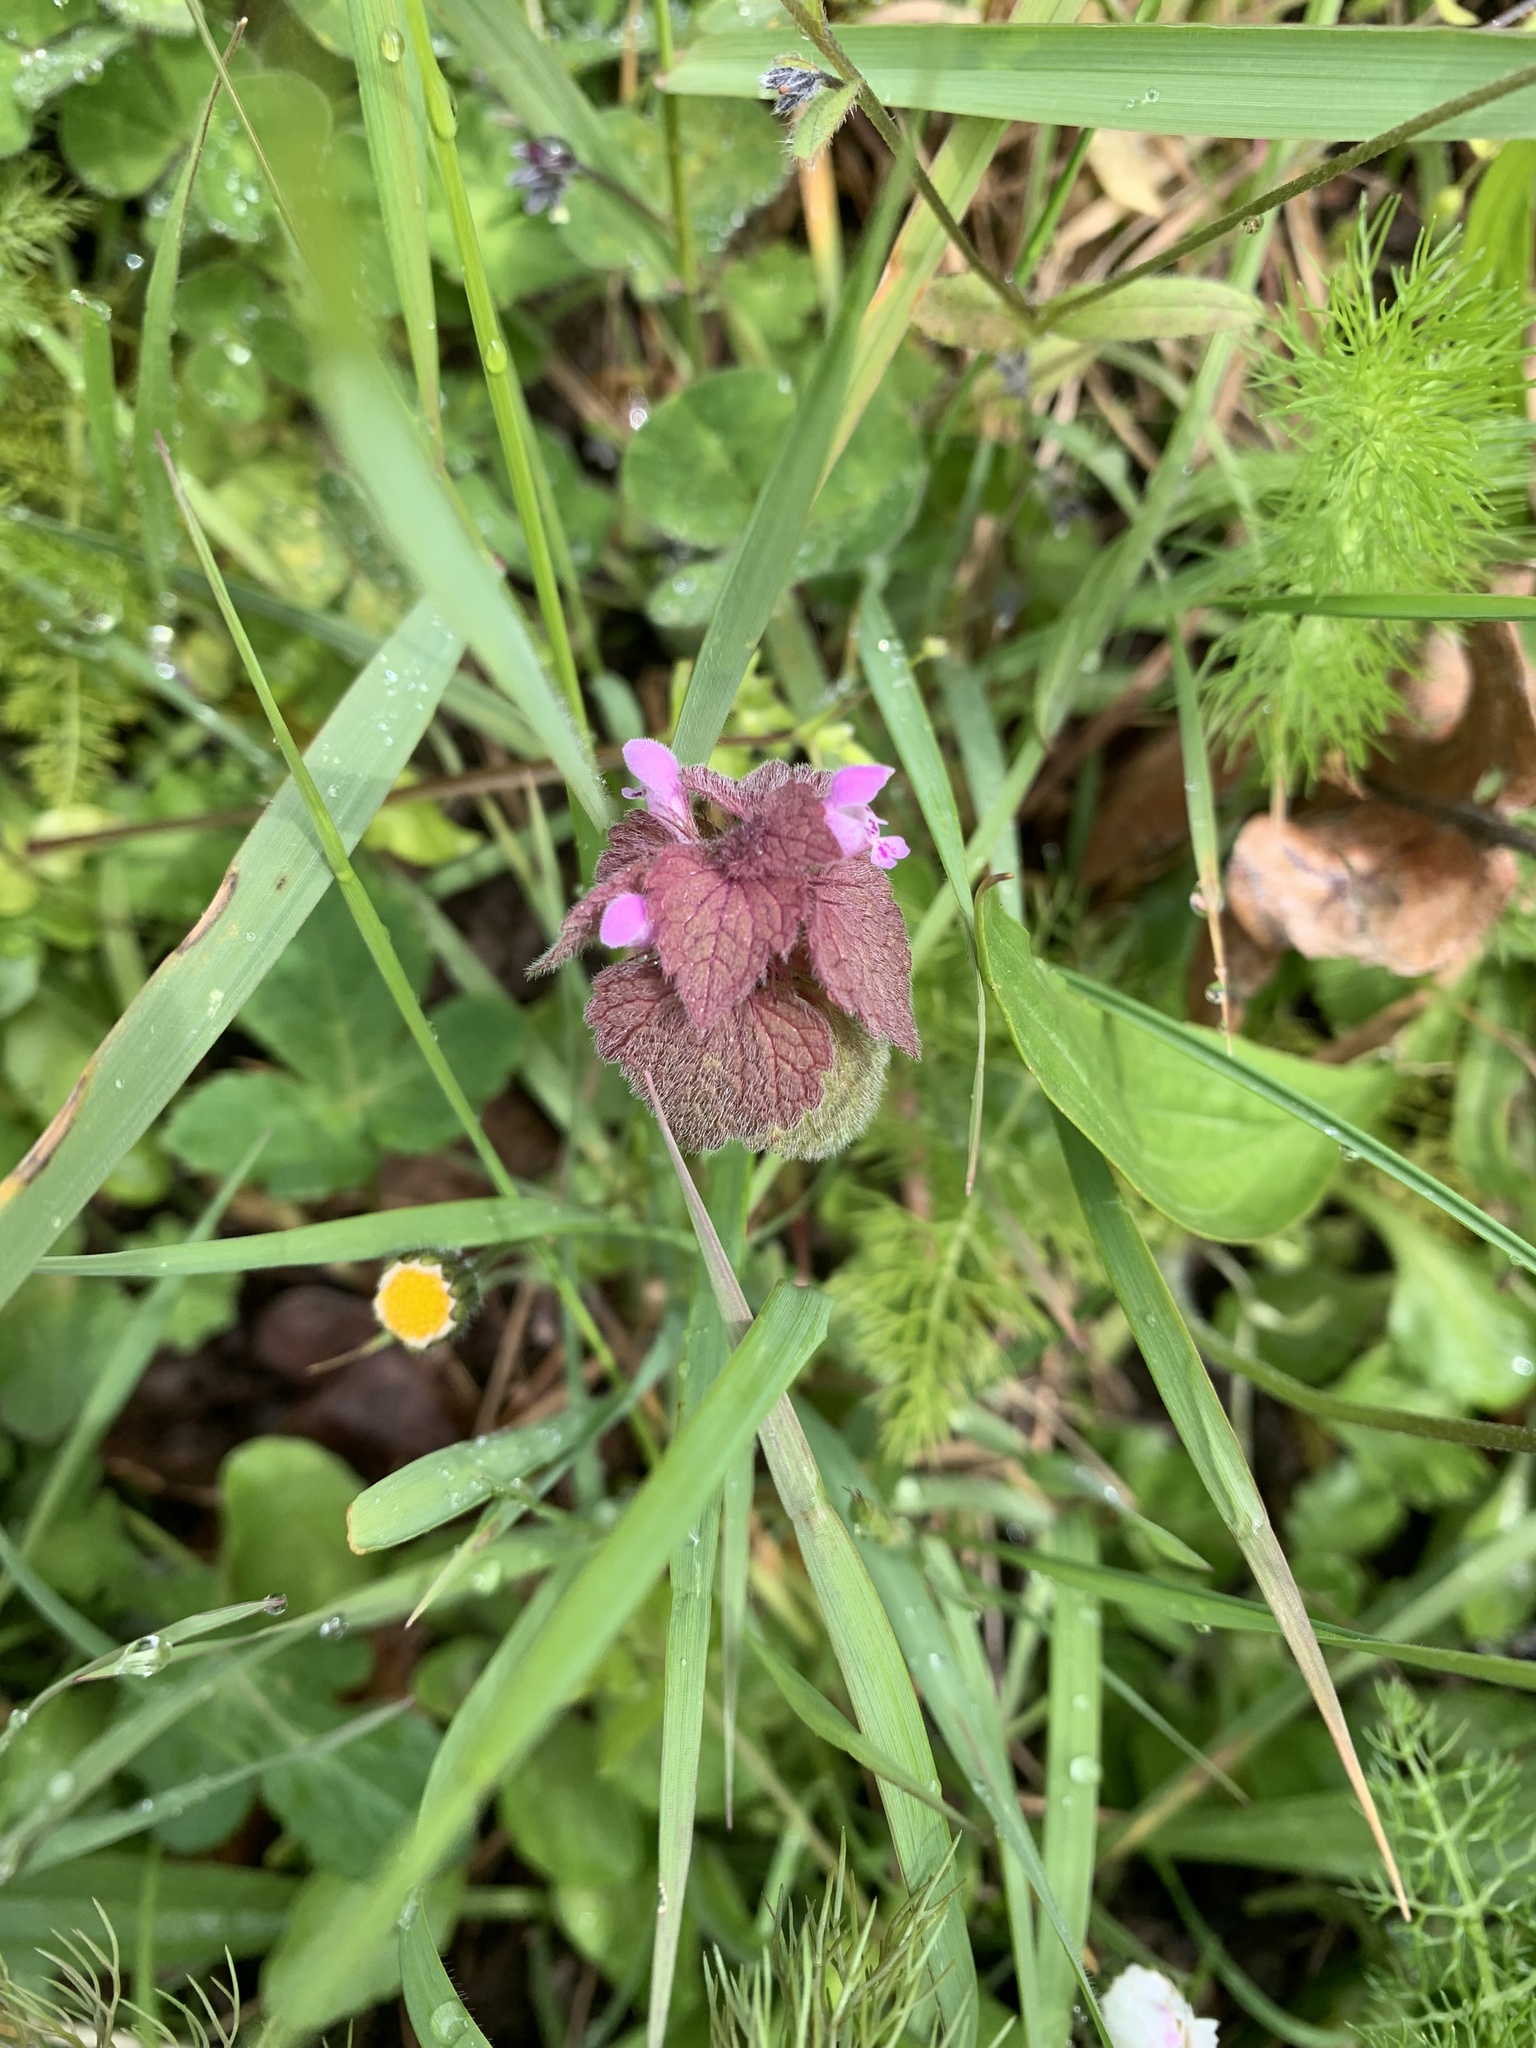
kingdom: Plantae
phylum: Tracheophyta
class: Magnoliopsida
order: Lamiales
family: Lamiaceae
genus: Lamium
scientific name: Lamium purpureum
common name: Red dead-nettle
